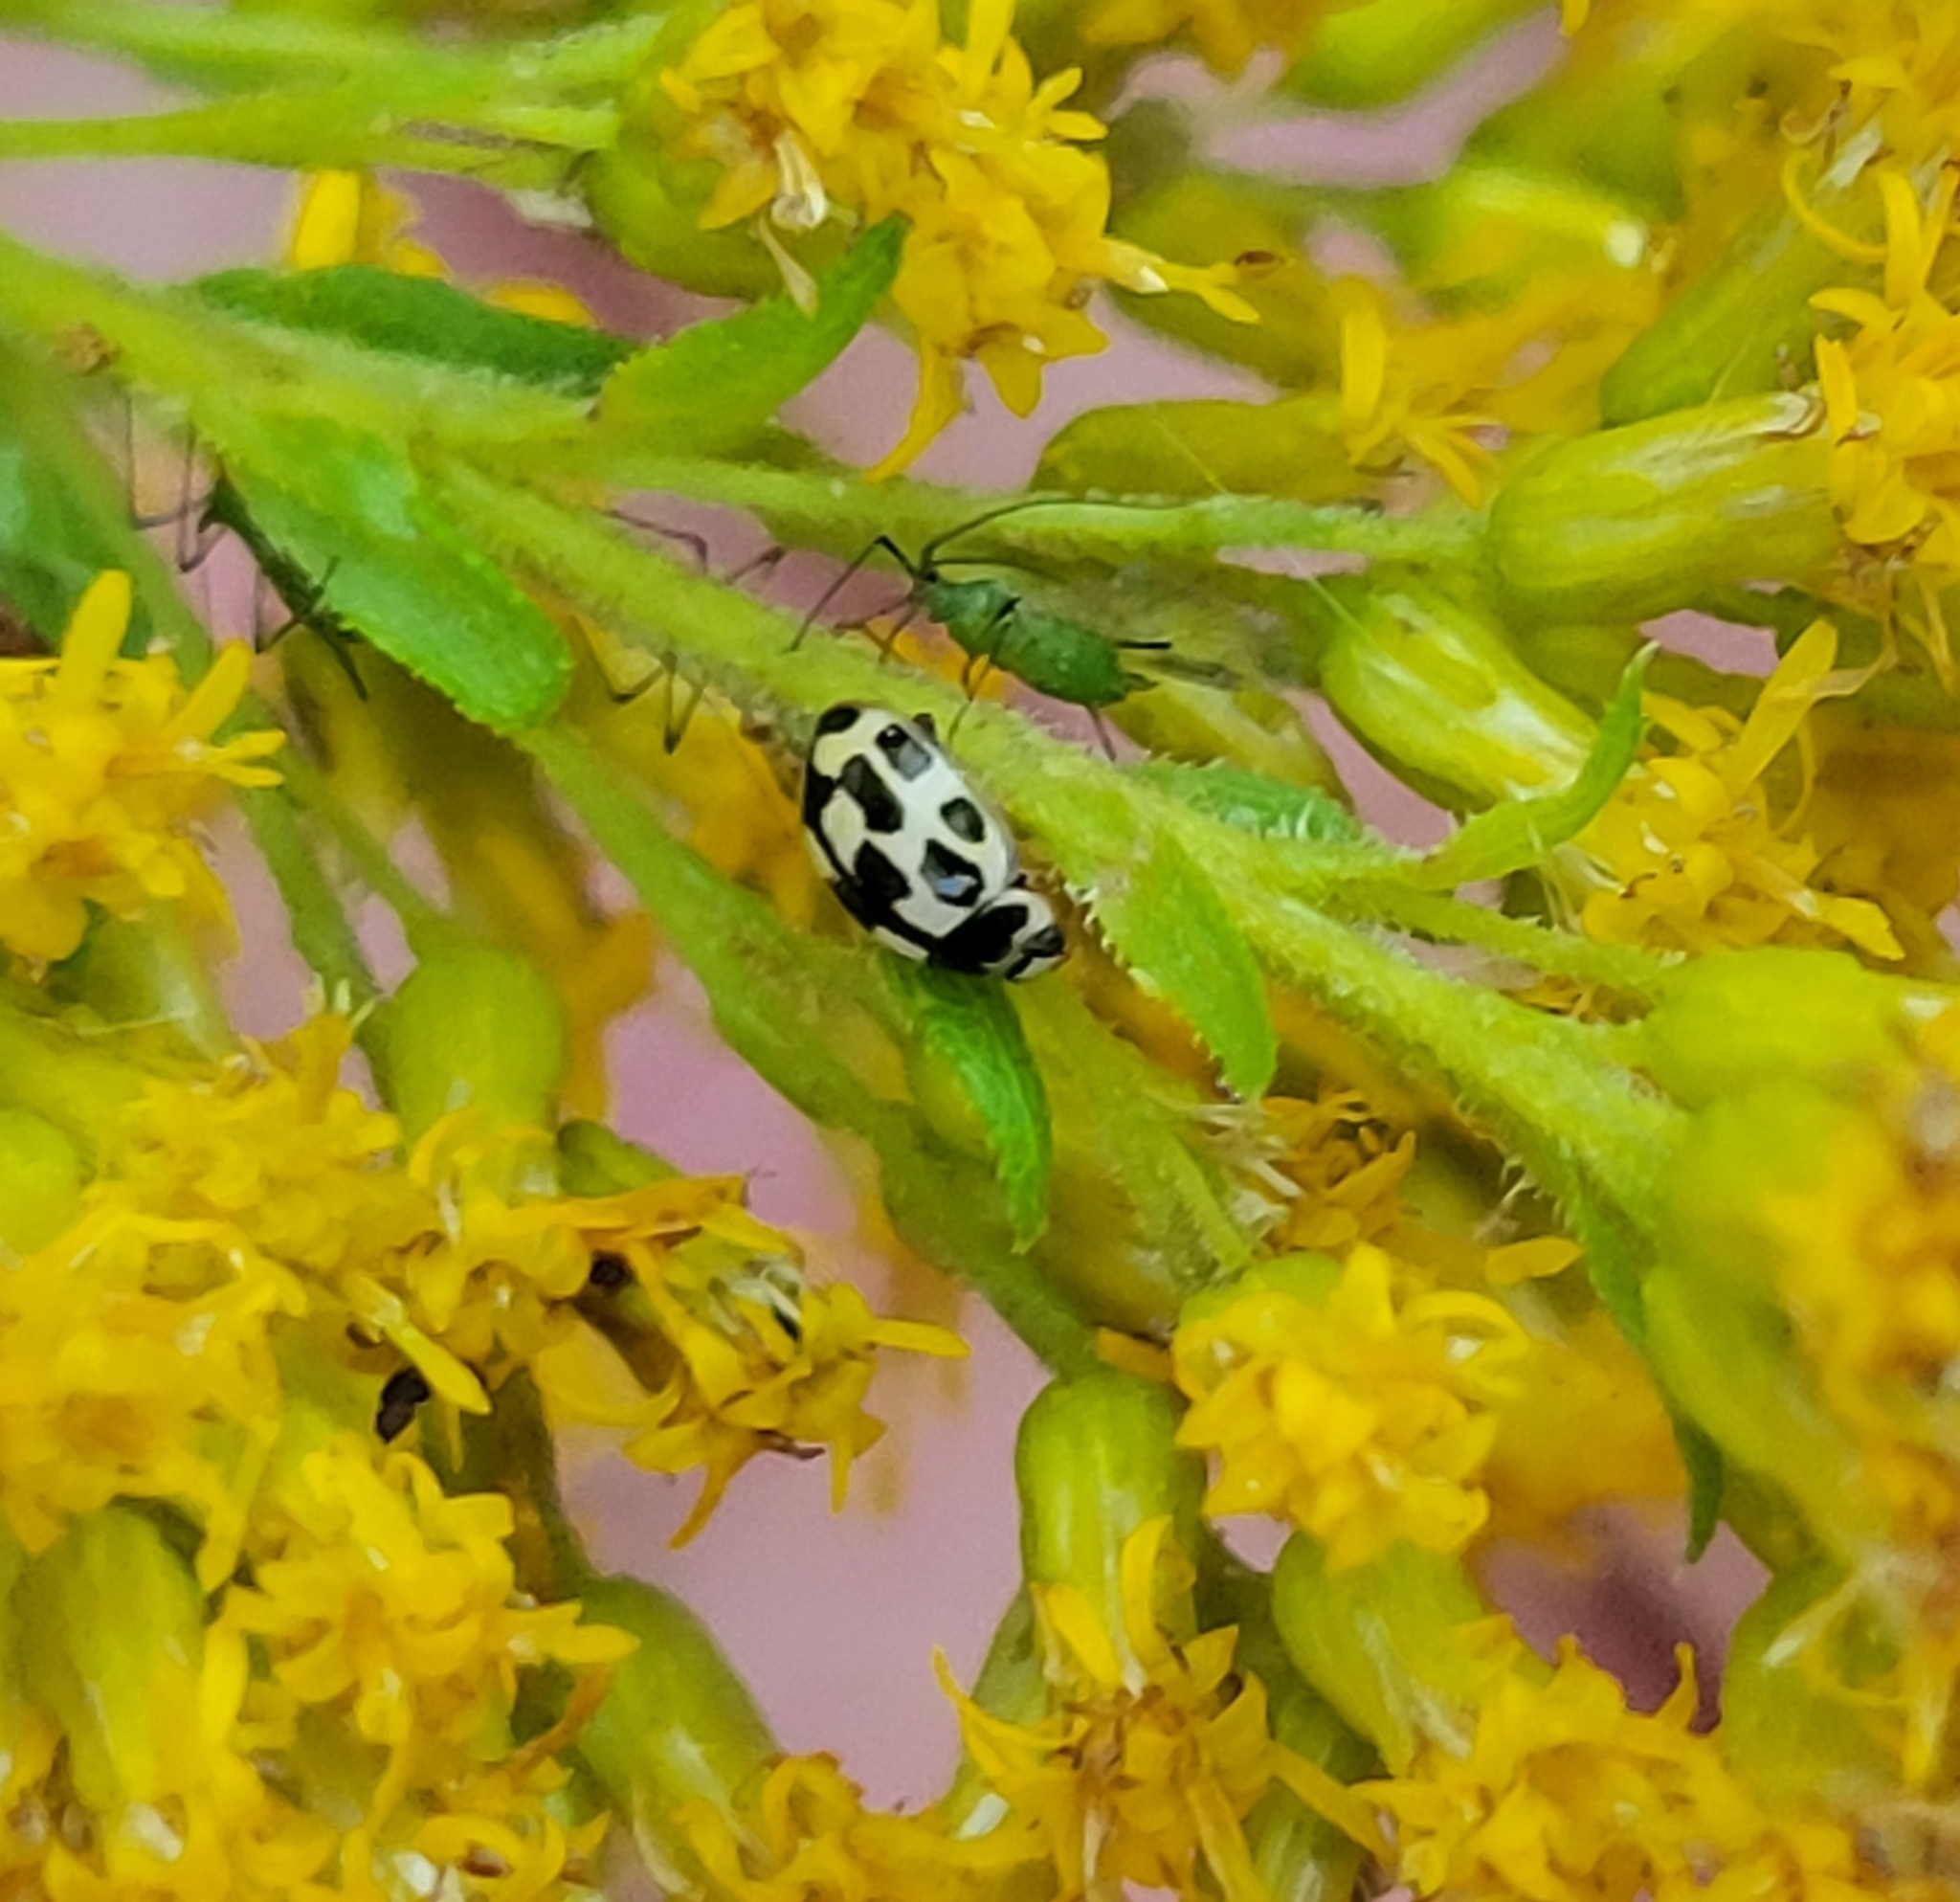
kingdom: Animalia
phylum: Arthropoda
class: Insecta
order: Coleoptera
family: Coccinellidae
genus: Propylaea
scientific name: Propylaea quatuordecimpunctata
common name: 14-spotted ladybird beetle
